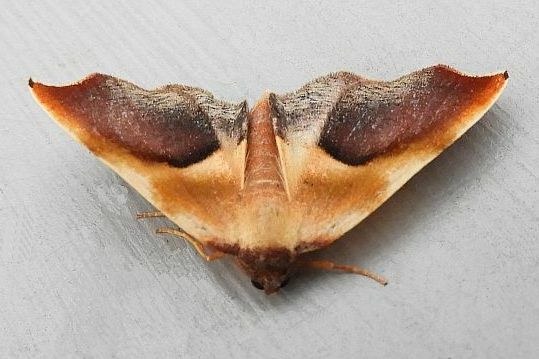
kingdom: Animalia
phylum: Arthropoda
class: Insecta
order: Lepidoptera
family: Geometridae
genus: Plagodis
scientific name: Plagodis kuetzingi
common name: Purple plagodis
